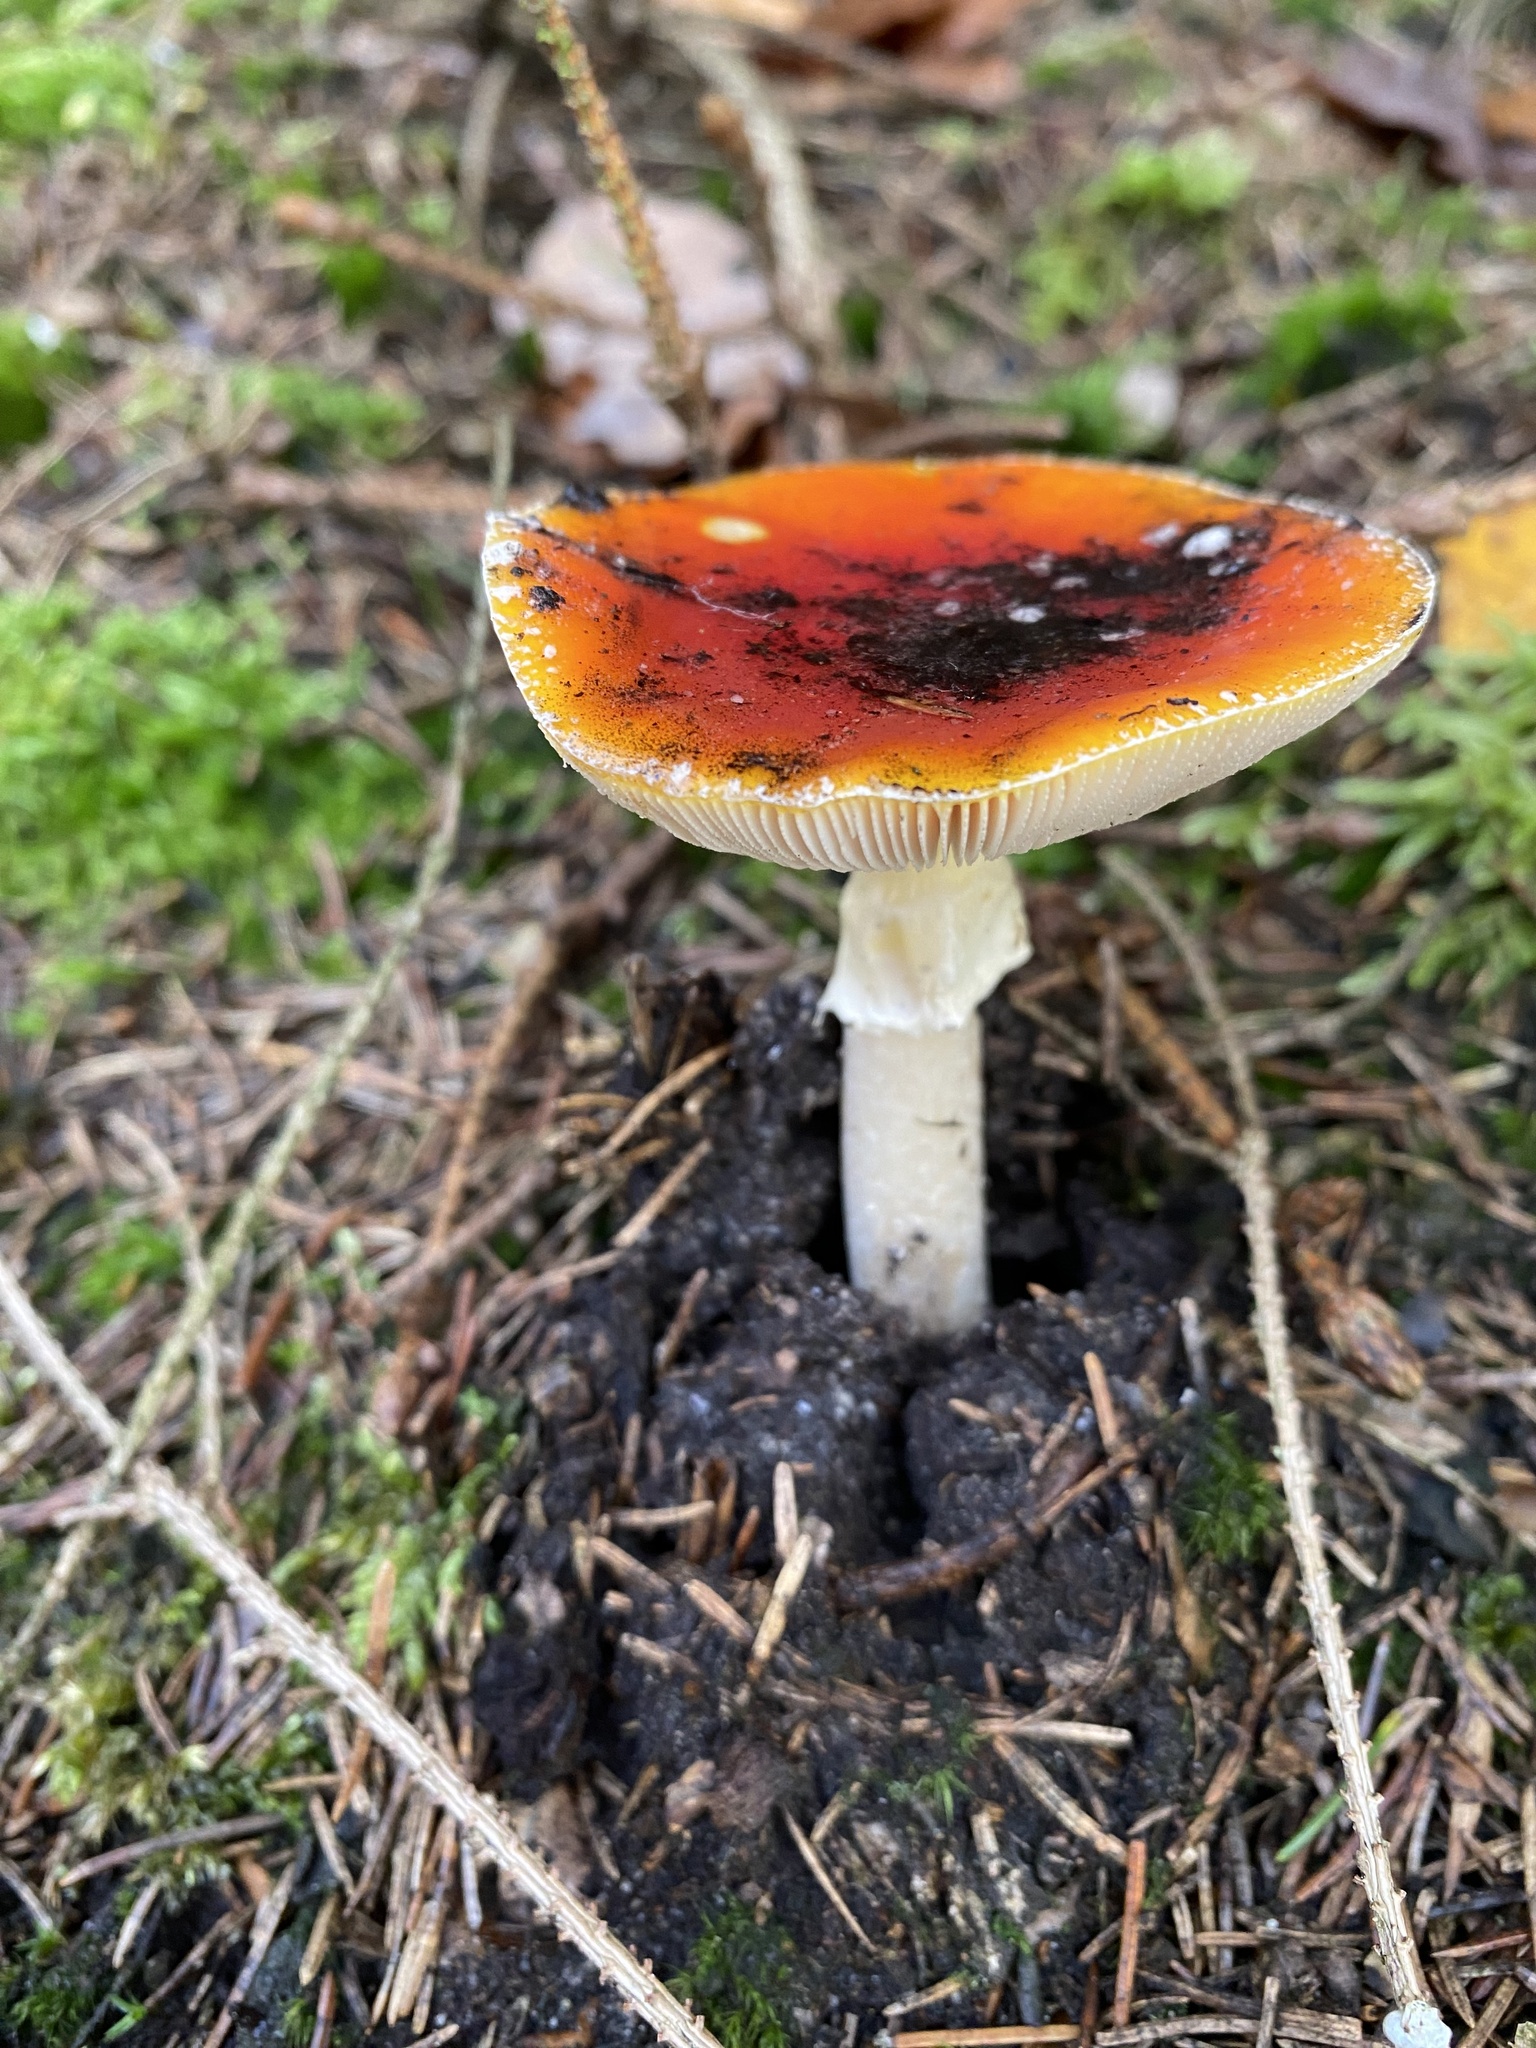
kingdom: Fungi
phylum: Basidiomycota
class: Agaricomycetes
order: Agaricales
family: Amanitaceae
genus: Amanita
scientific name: Amanita muscaria
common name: Fly agaric
